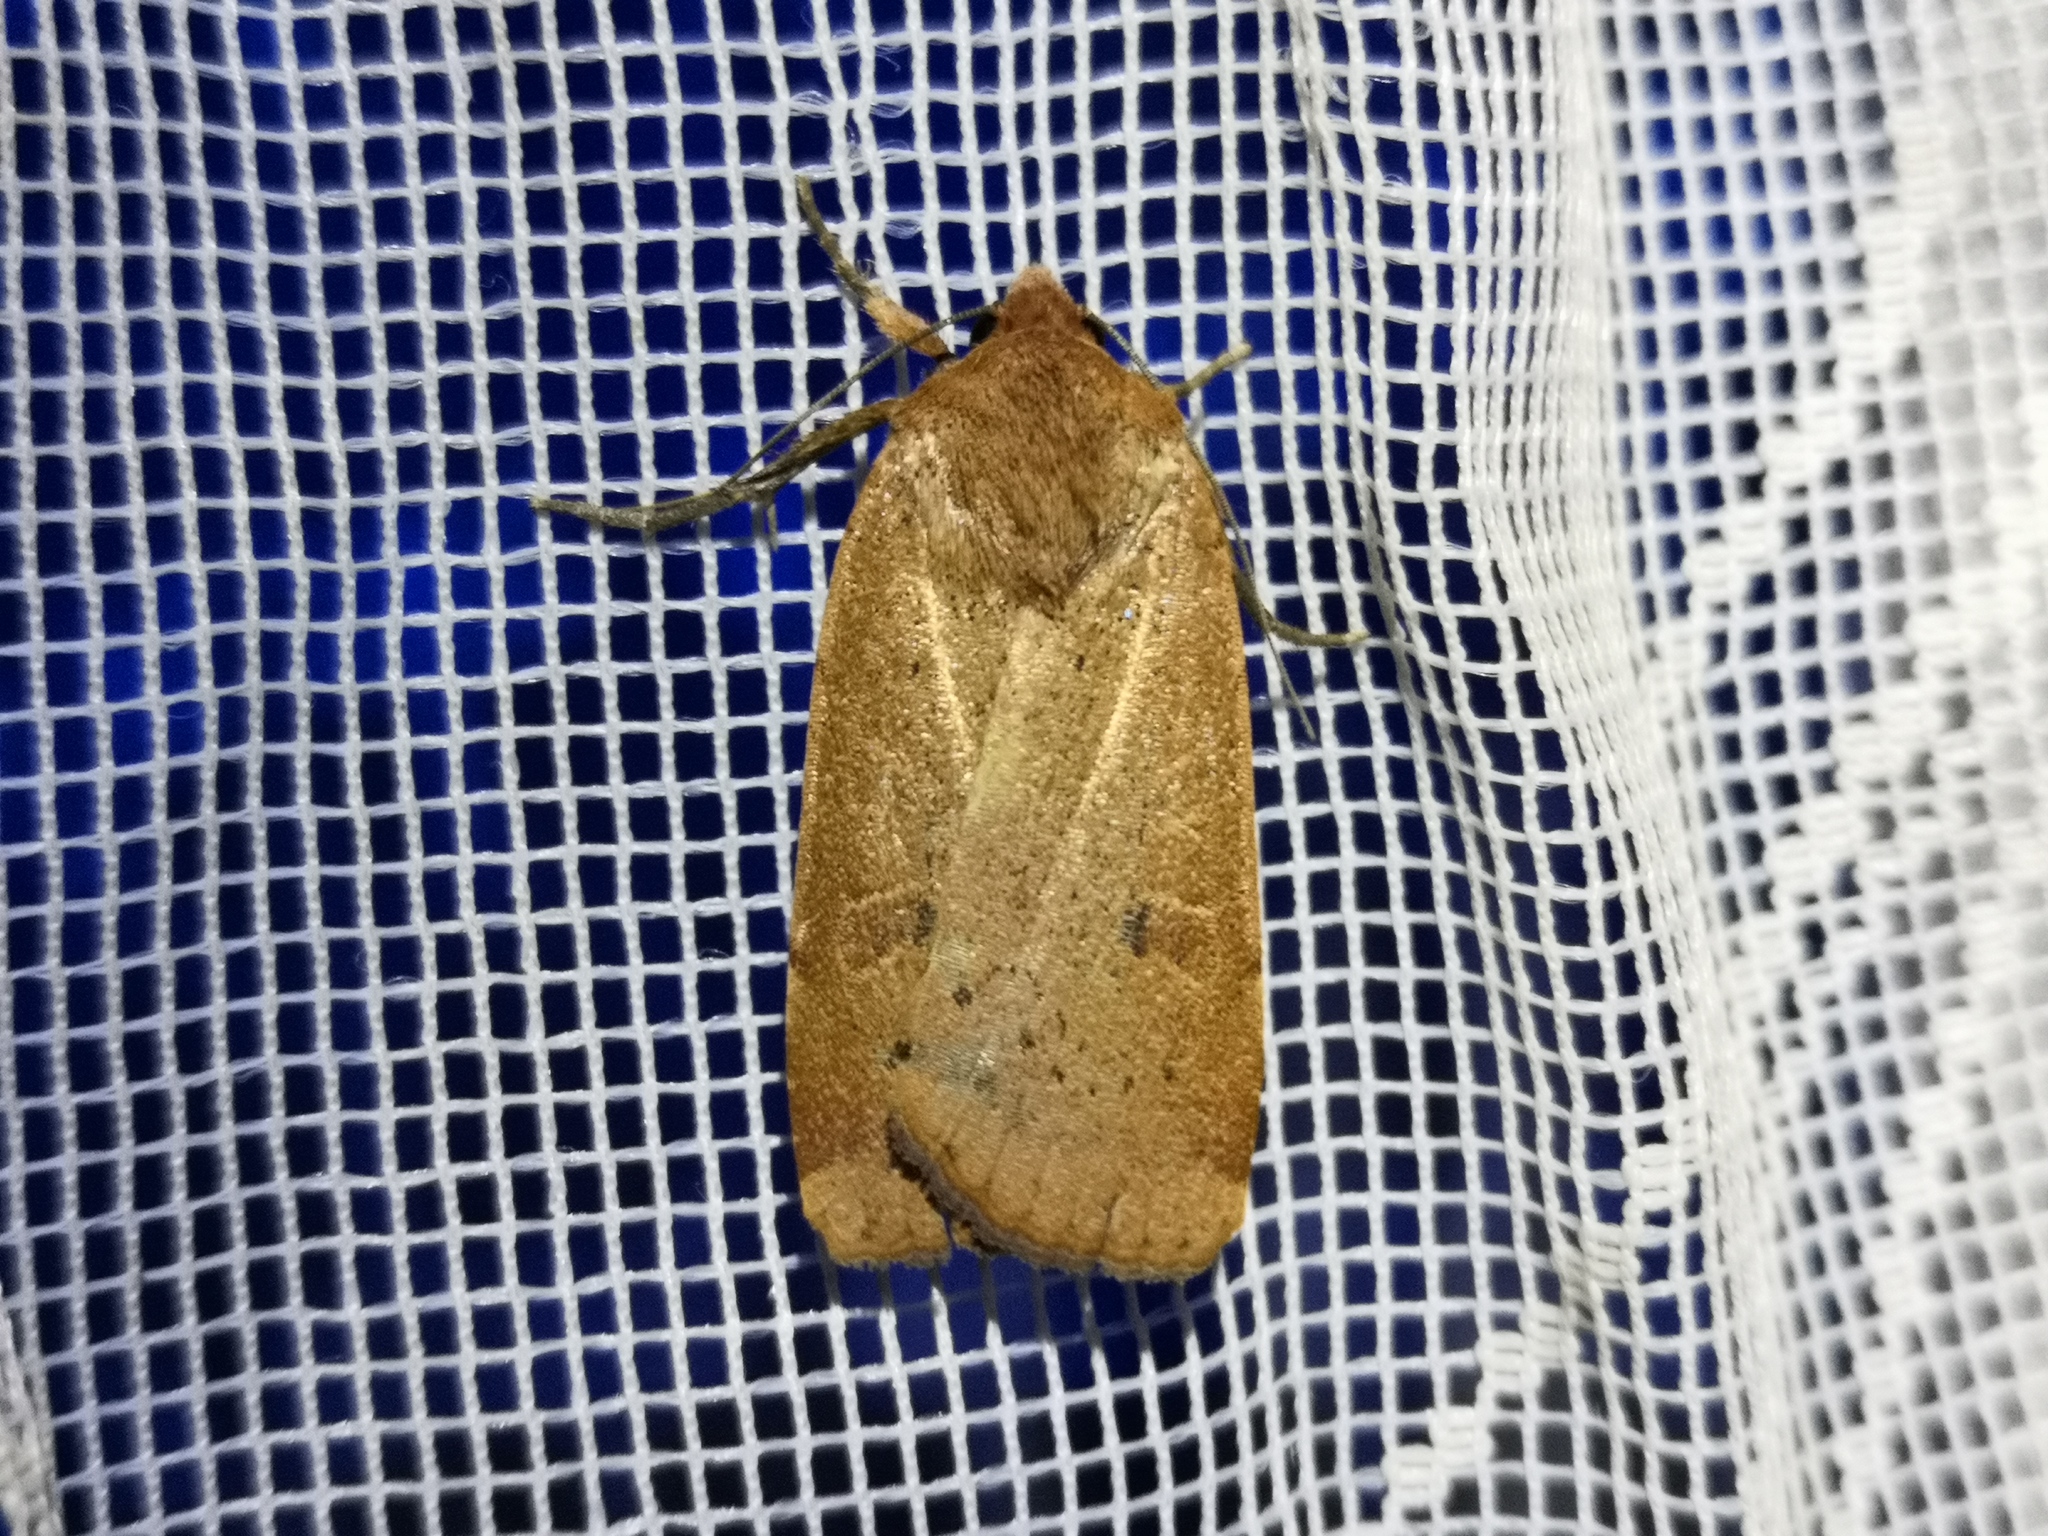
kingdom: Animalia
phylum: Arthropoda
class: Insecta
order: Lepidoptera
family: Noctuidae
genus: Noctua
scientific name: Noctua comes
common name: Lesser yellow underwing
